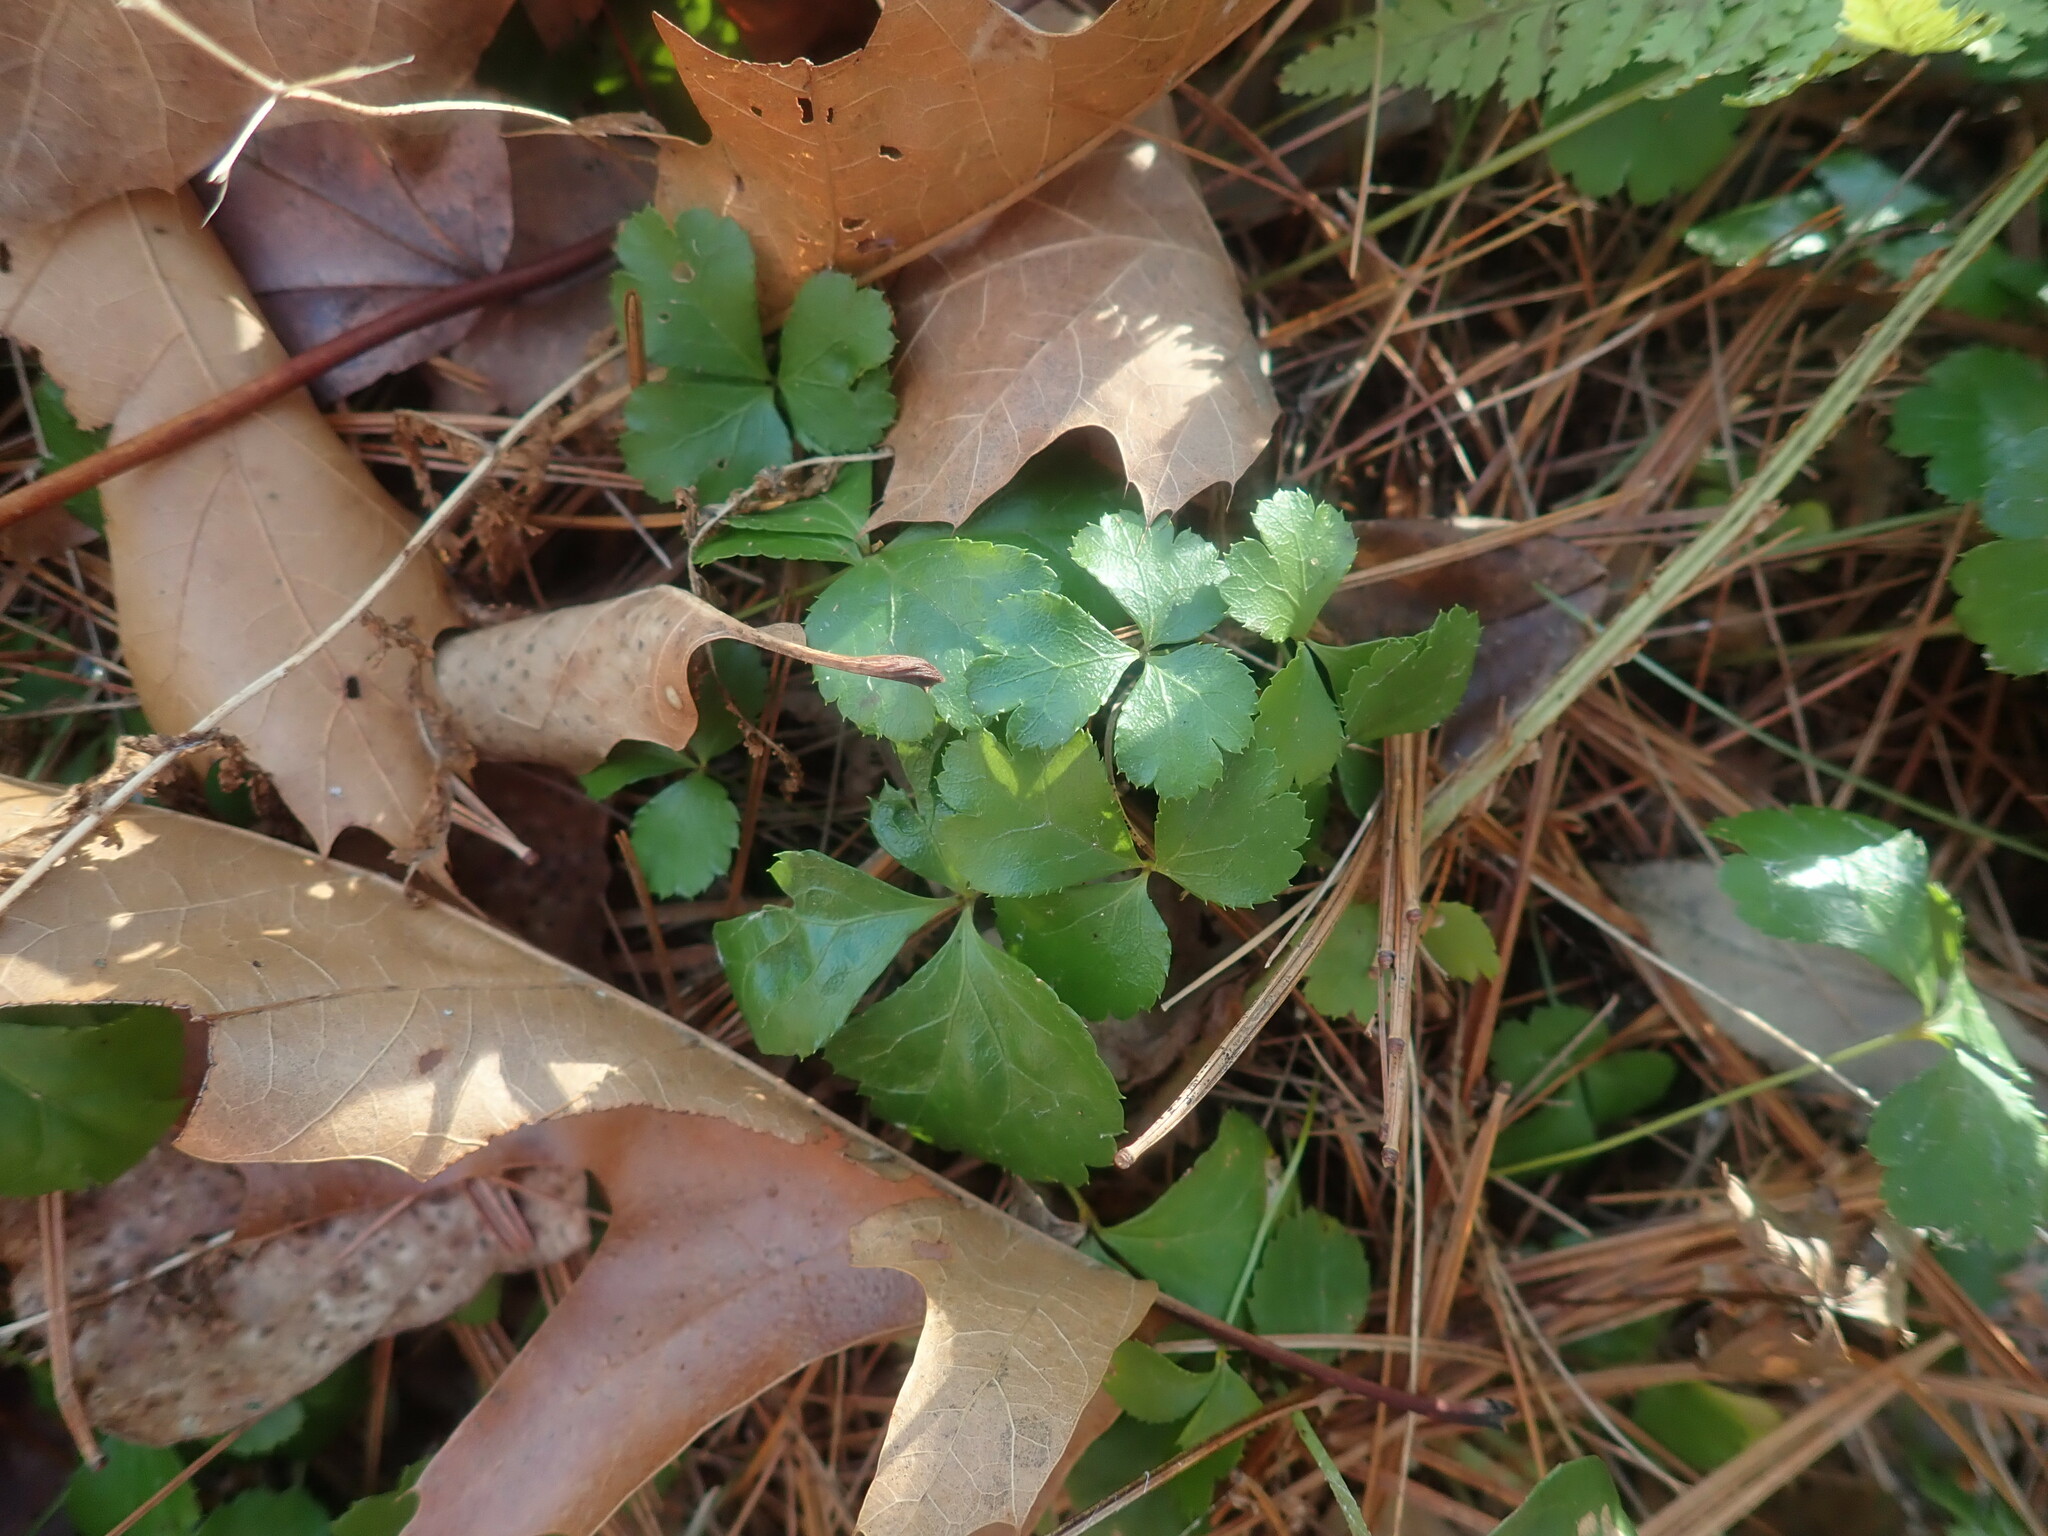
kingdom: Plantae
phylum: Tracheophyta
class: Magnoliopsida
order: Ranunculales
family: Ranunculaceae
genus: Coptis
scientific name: Coptis trifolia
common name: Canker-root
